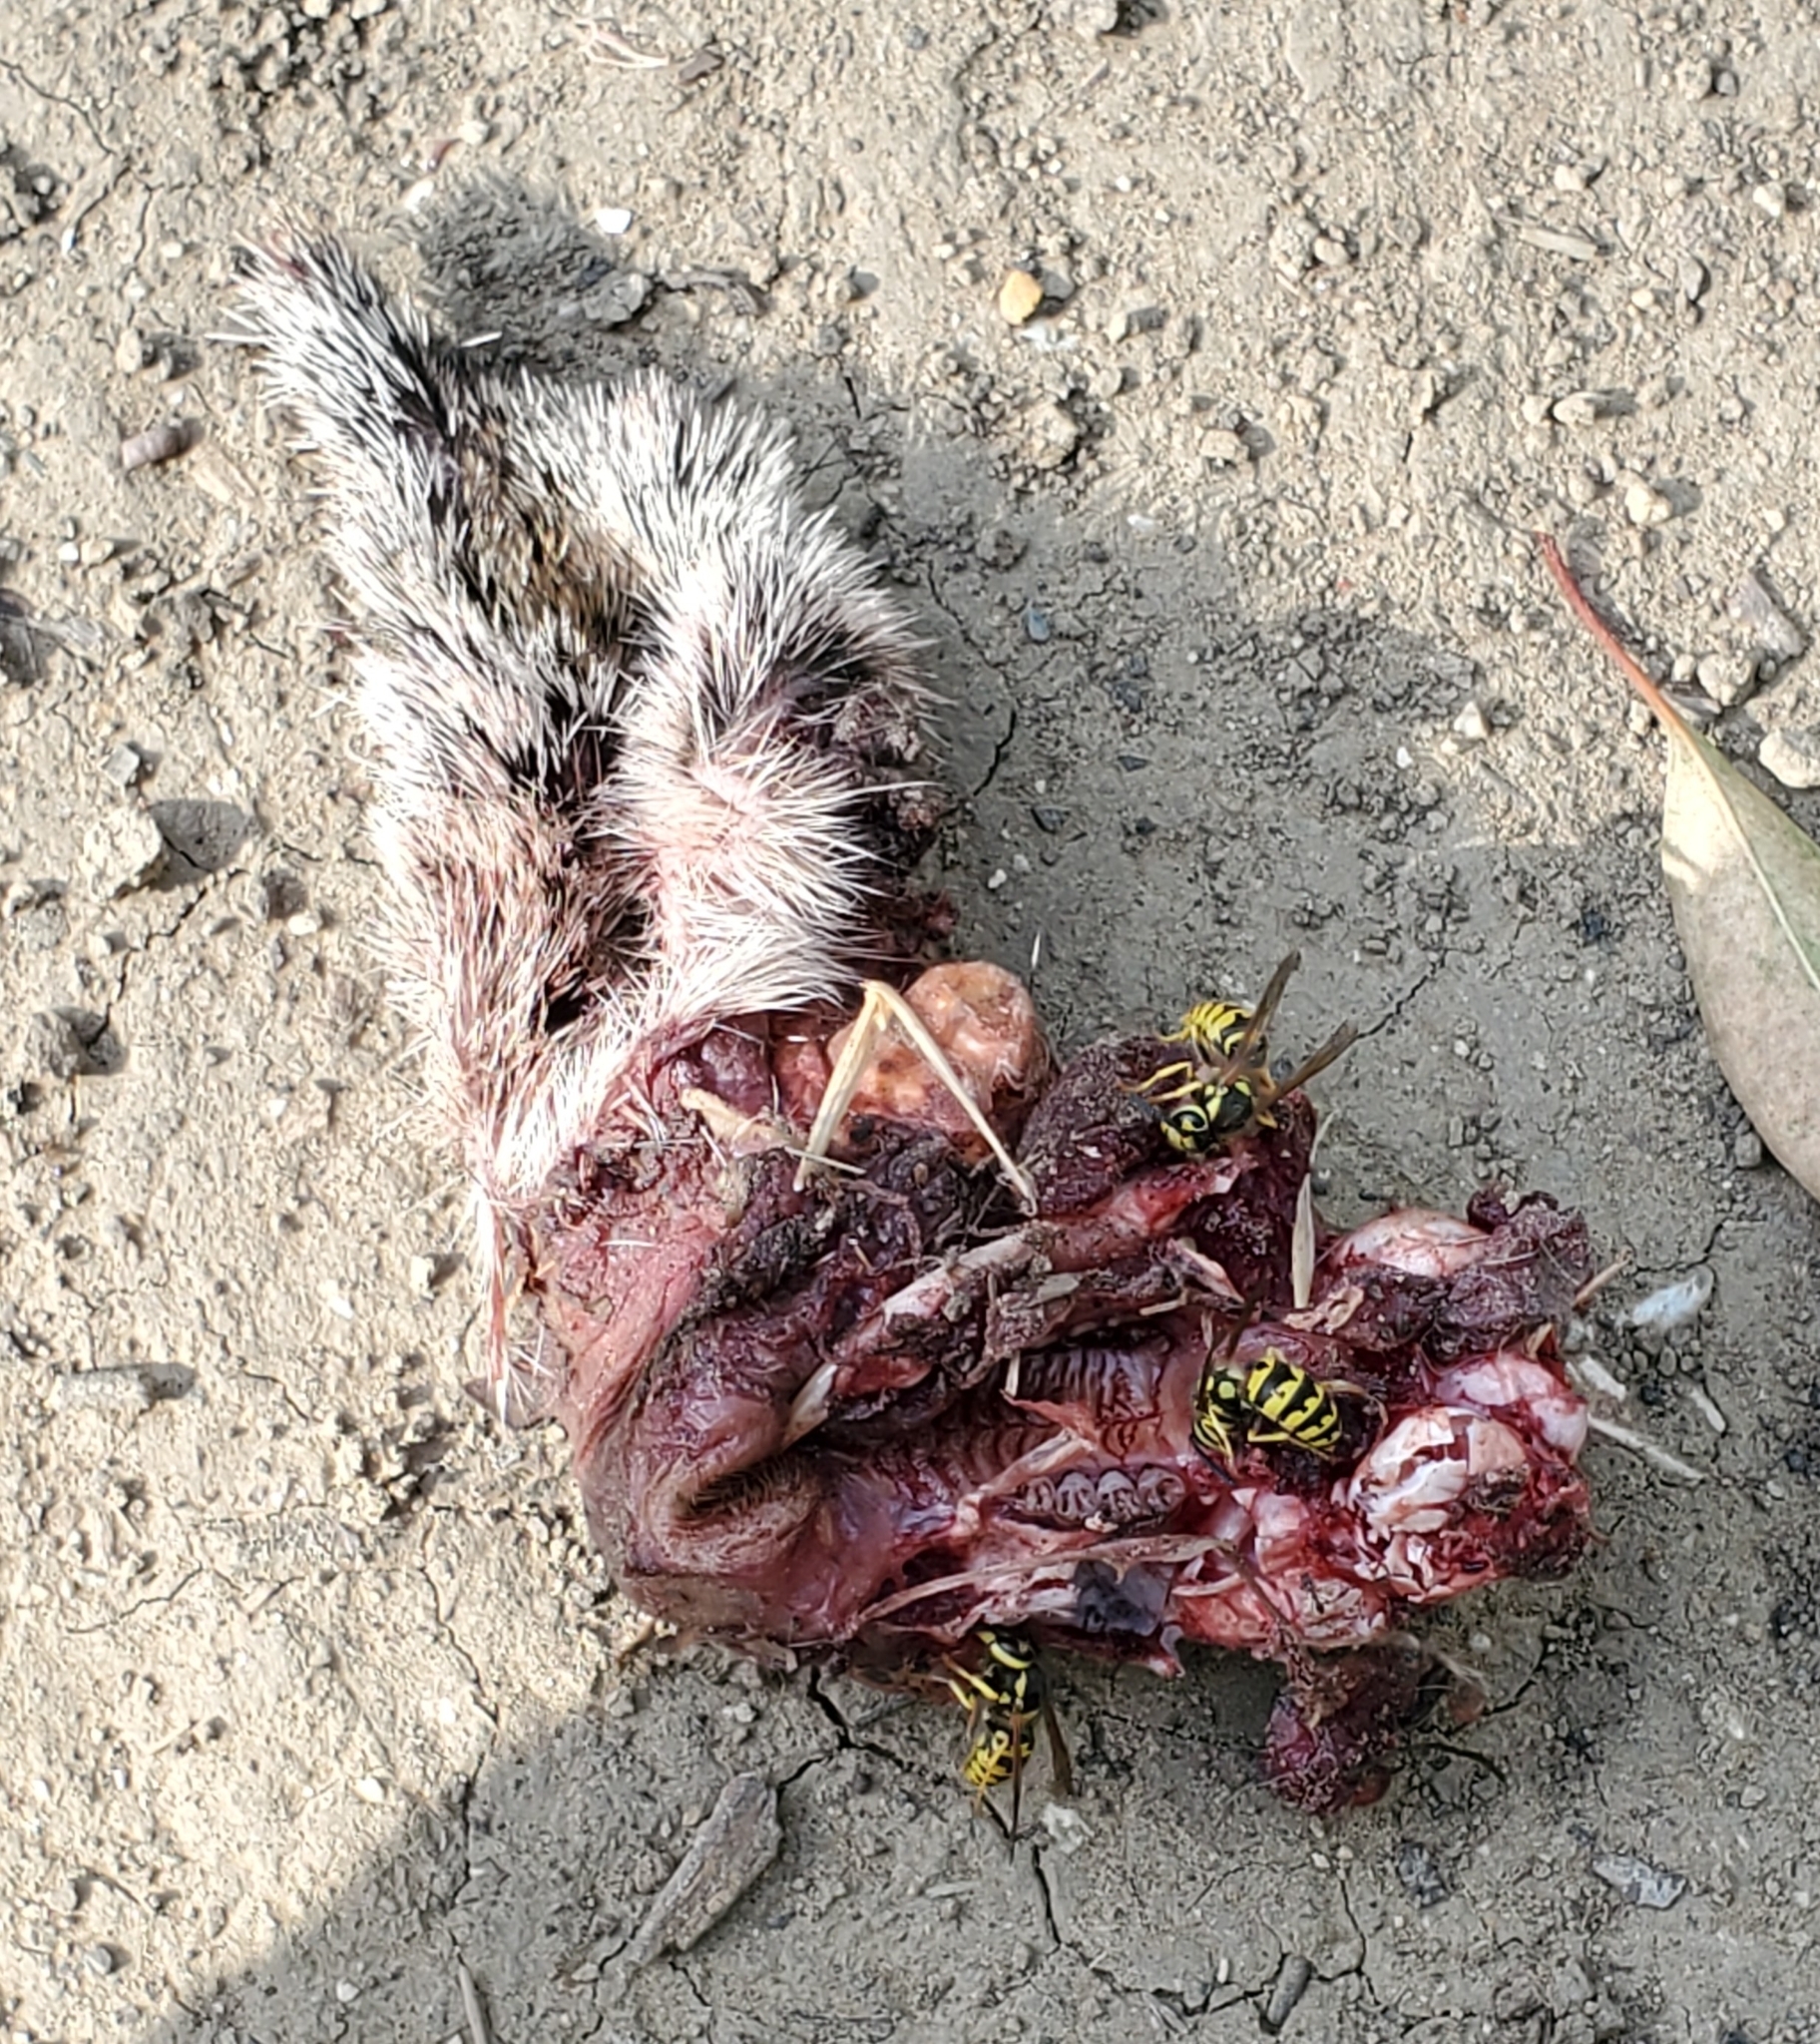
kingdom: Animalia
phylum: Arthropoda
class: Insecta
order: Hymenoptera
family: Vespidae
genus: Vespula
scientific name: Vespula pensylvanica
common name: Western yellowjacket
